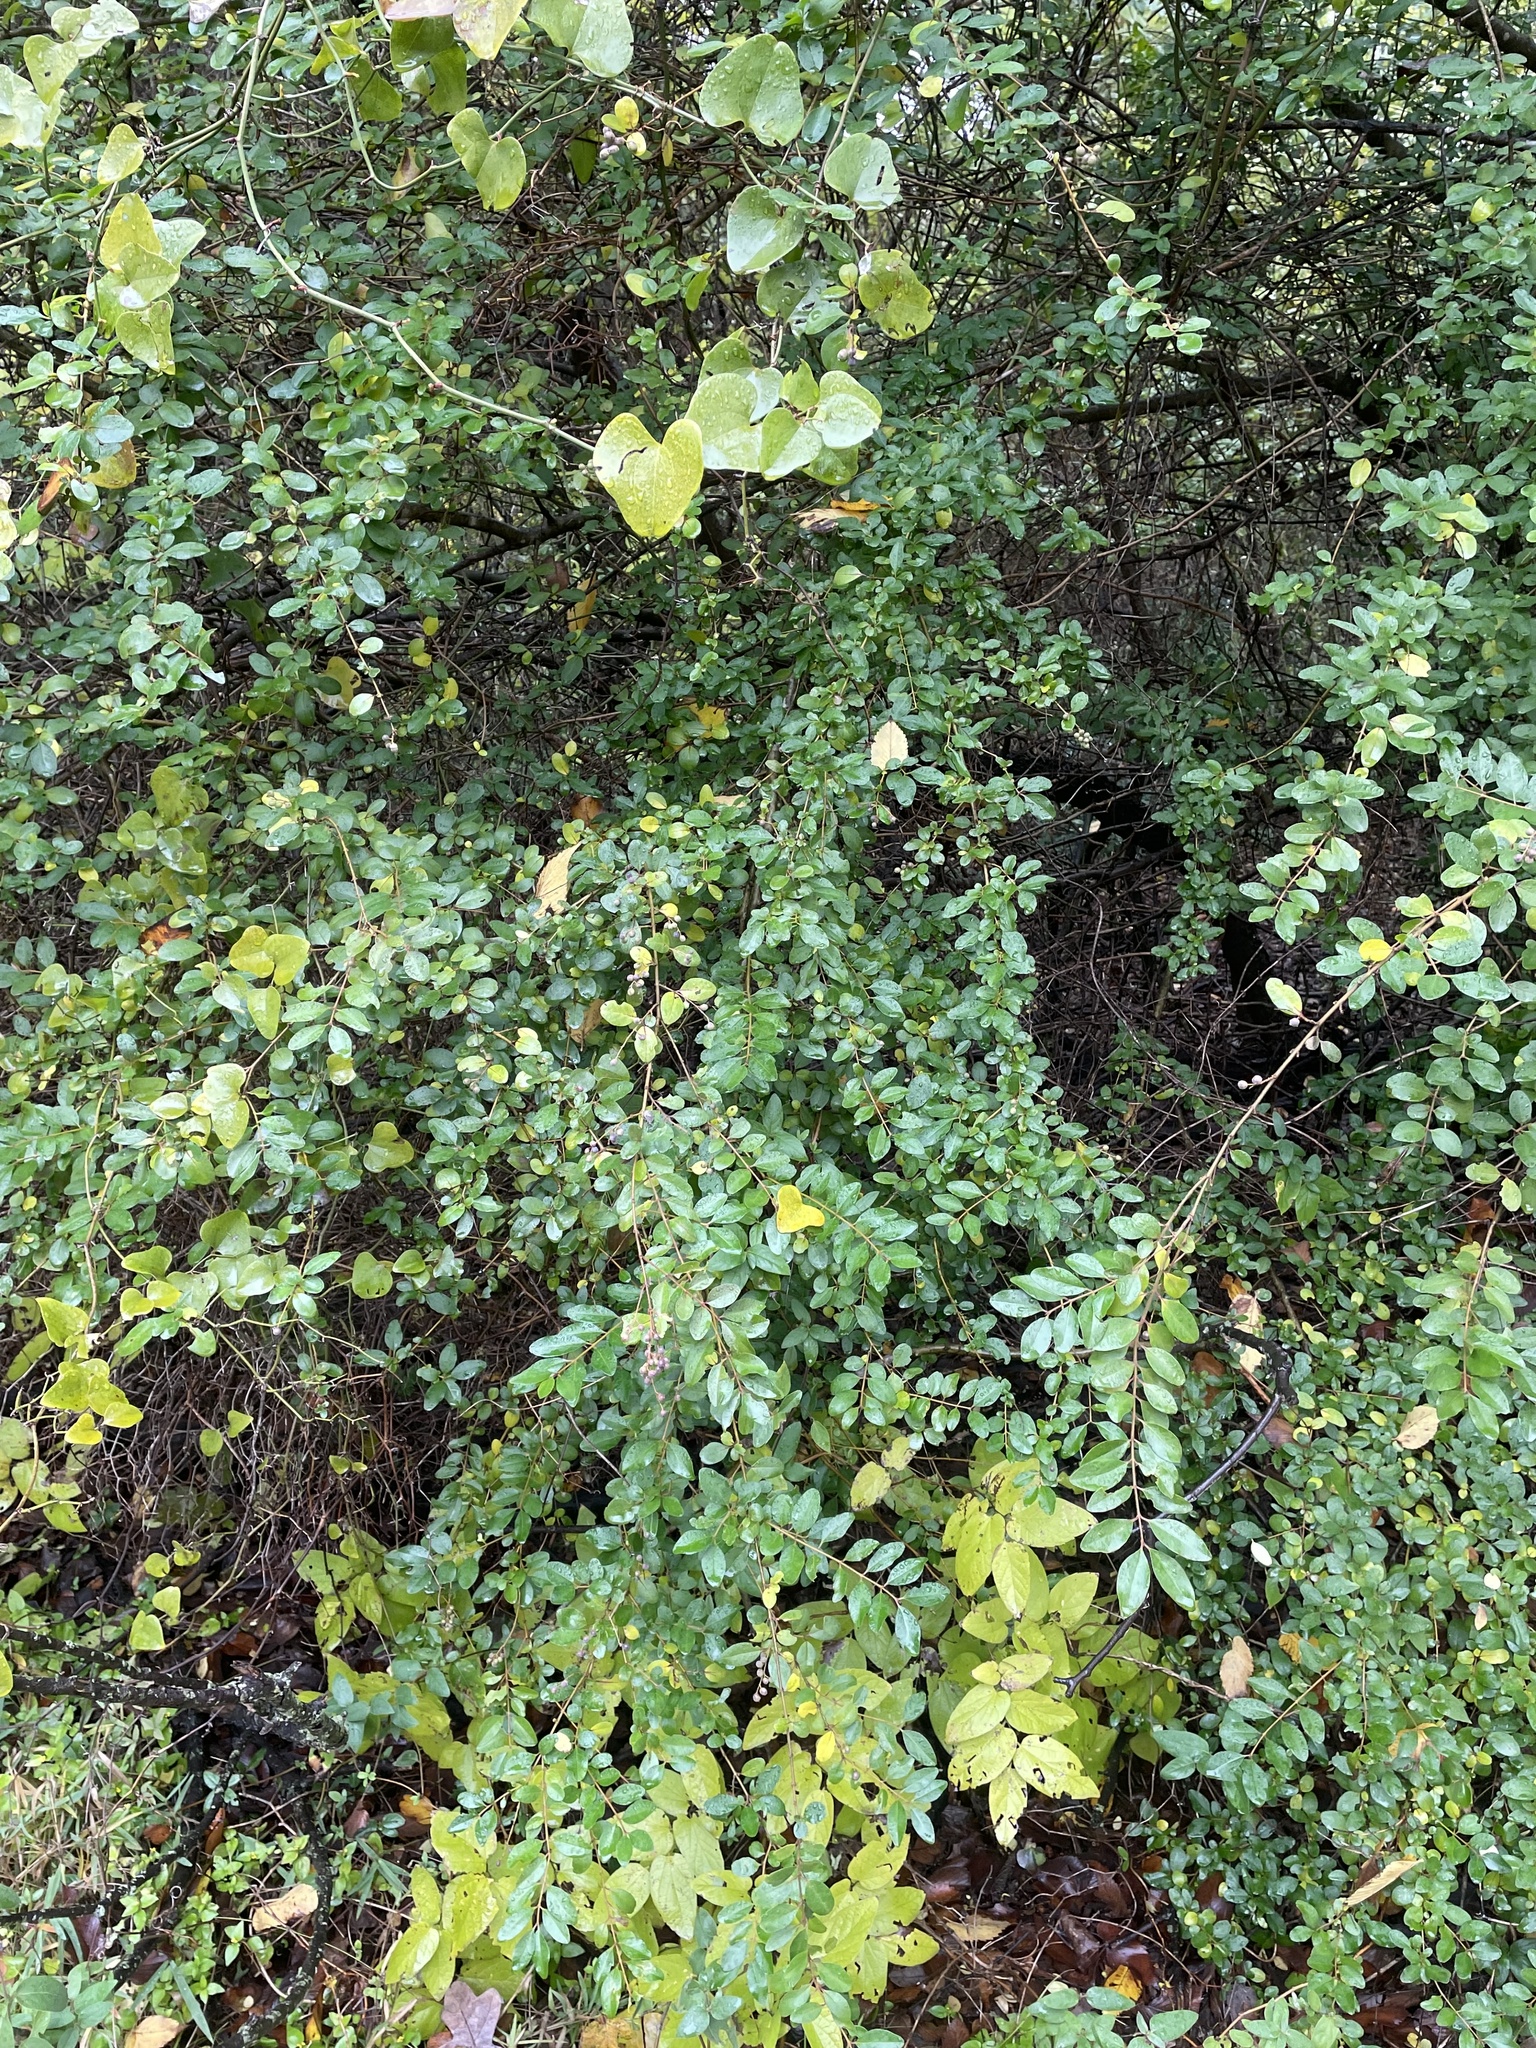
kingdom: Plantae
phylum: Tracheophyta
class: Magnoliopsida
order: Lamiales
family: Oleaceae
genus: Ligustrum
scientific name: Ligustrum sinense
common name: Chinese privet
